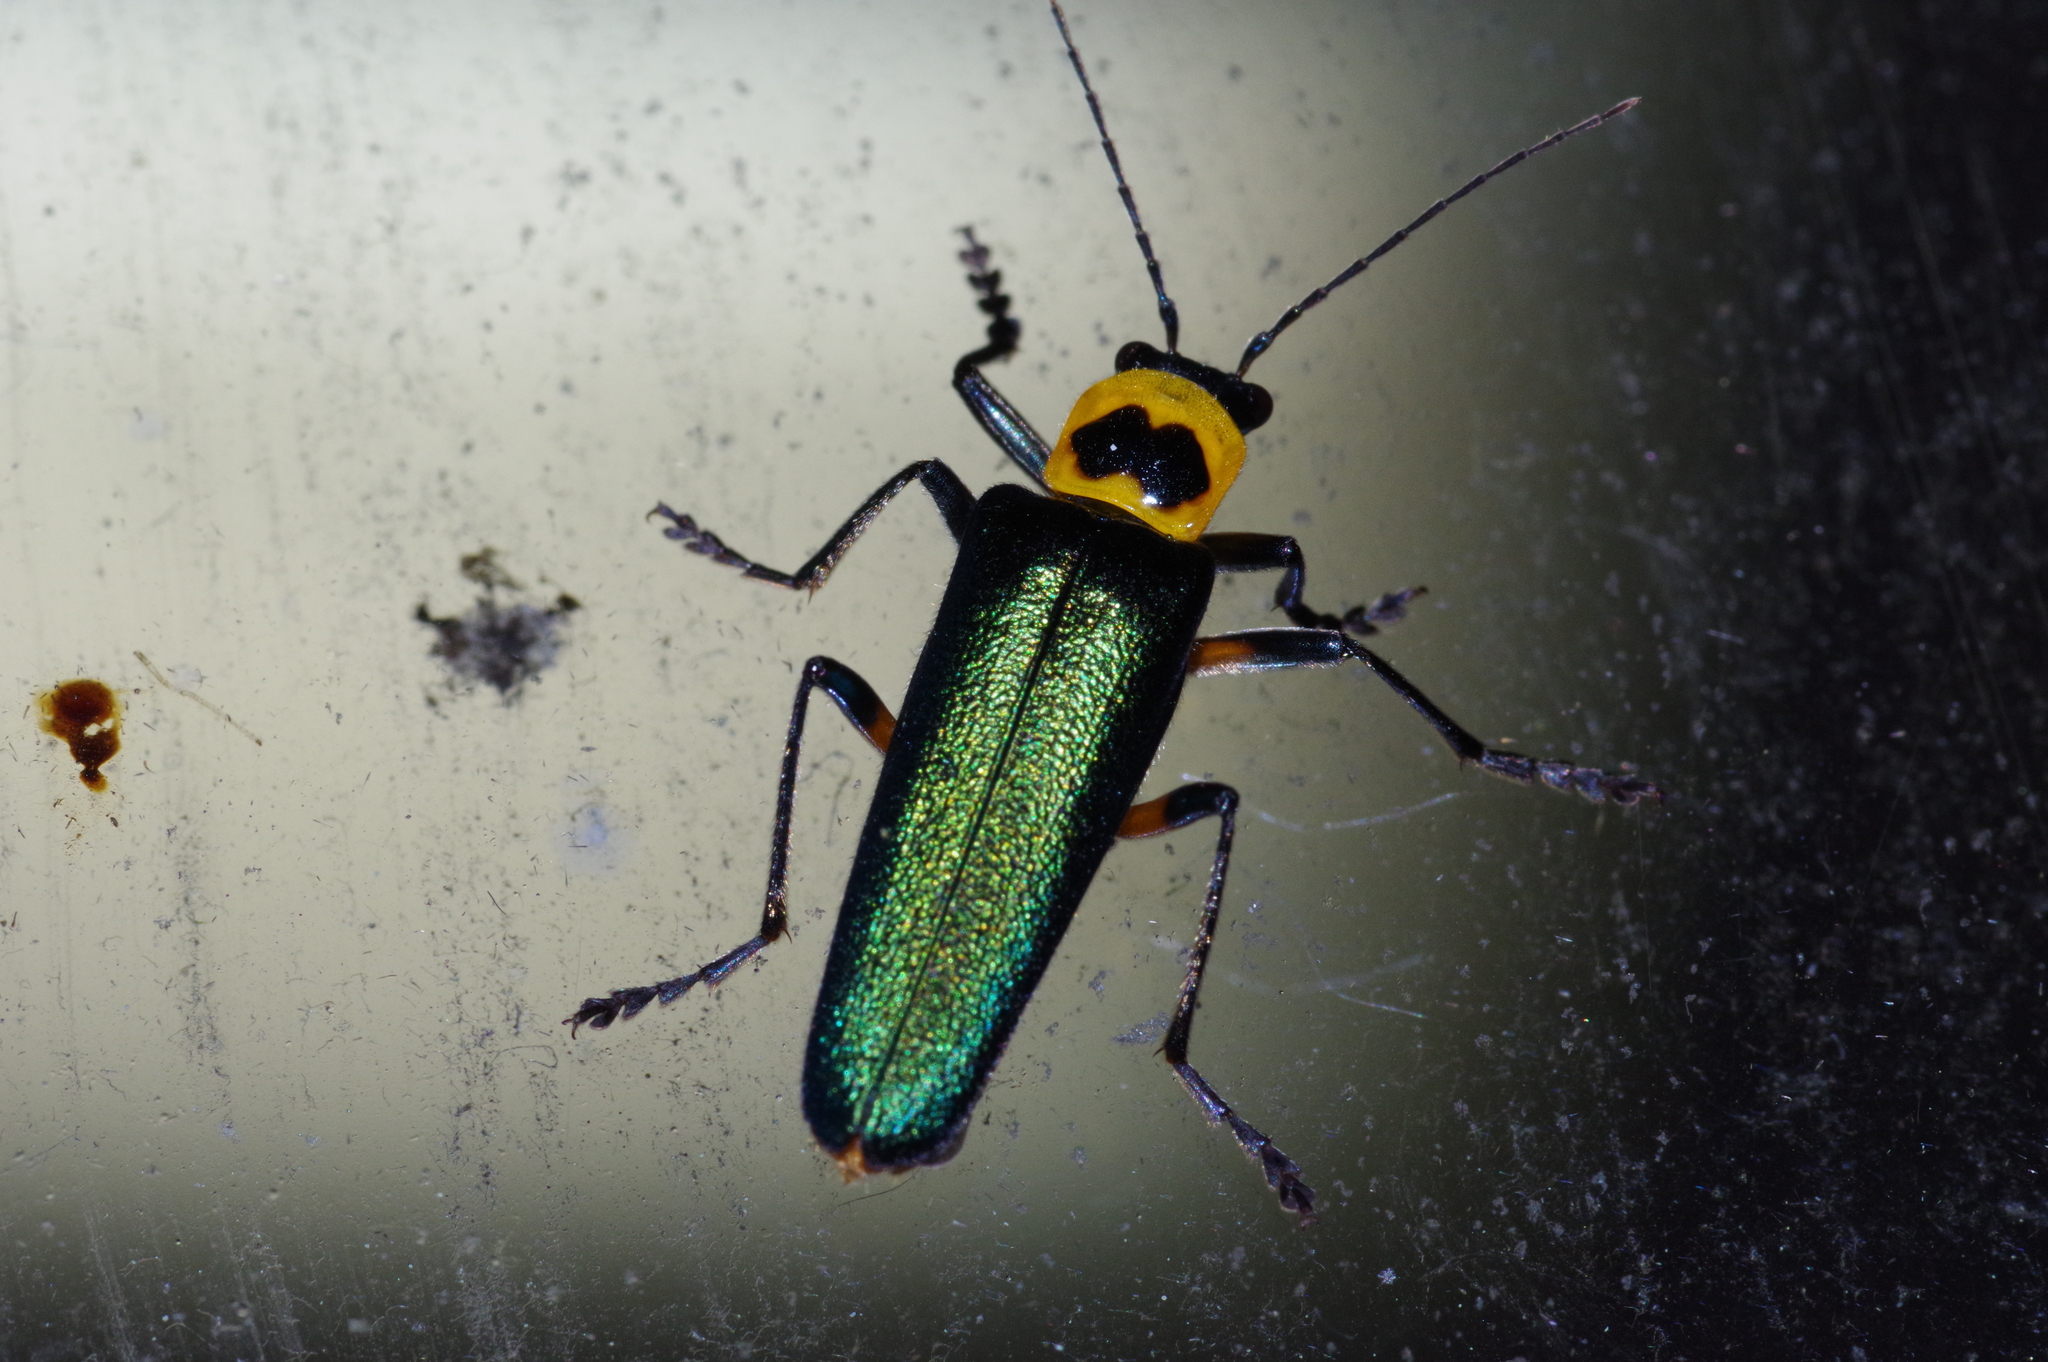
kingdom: Animalia
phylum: Arthropoda
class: Insecta
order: Coleoptera
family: Cantharidae
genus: Themus
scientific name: Themus
